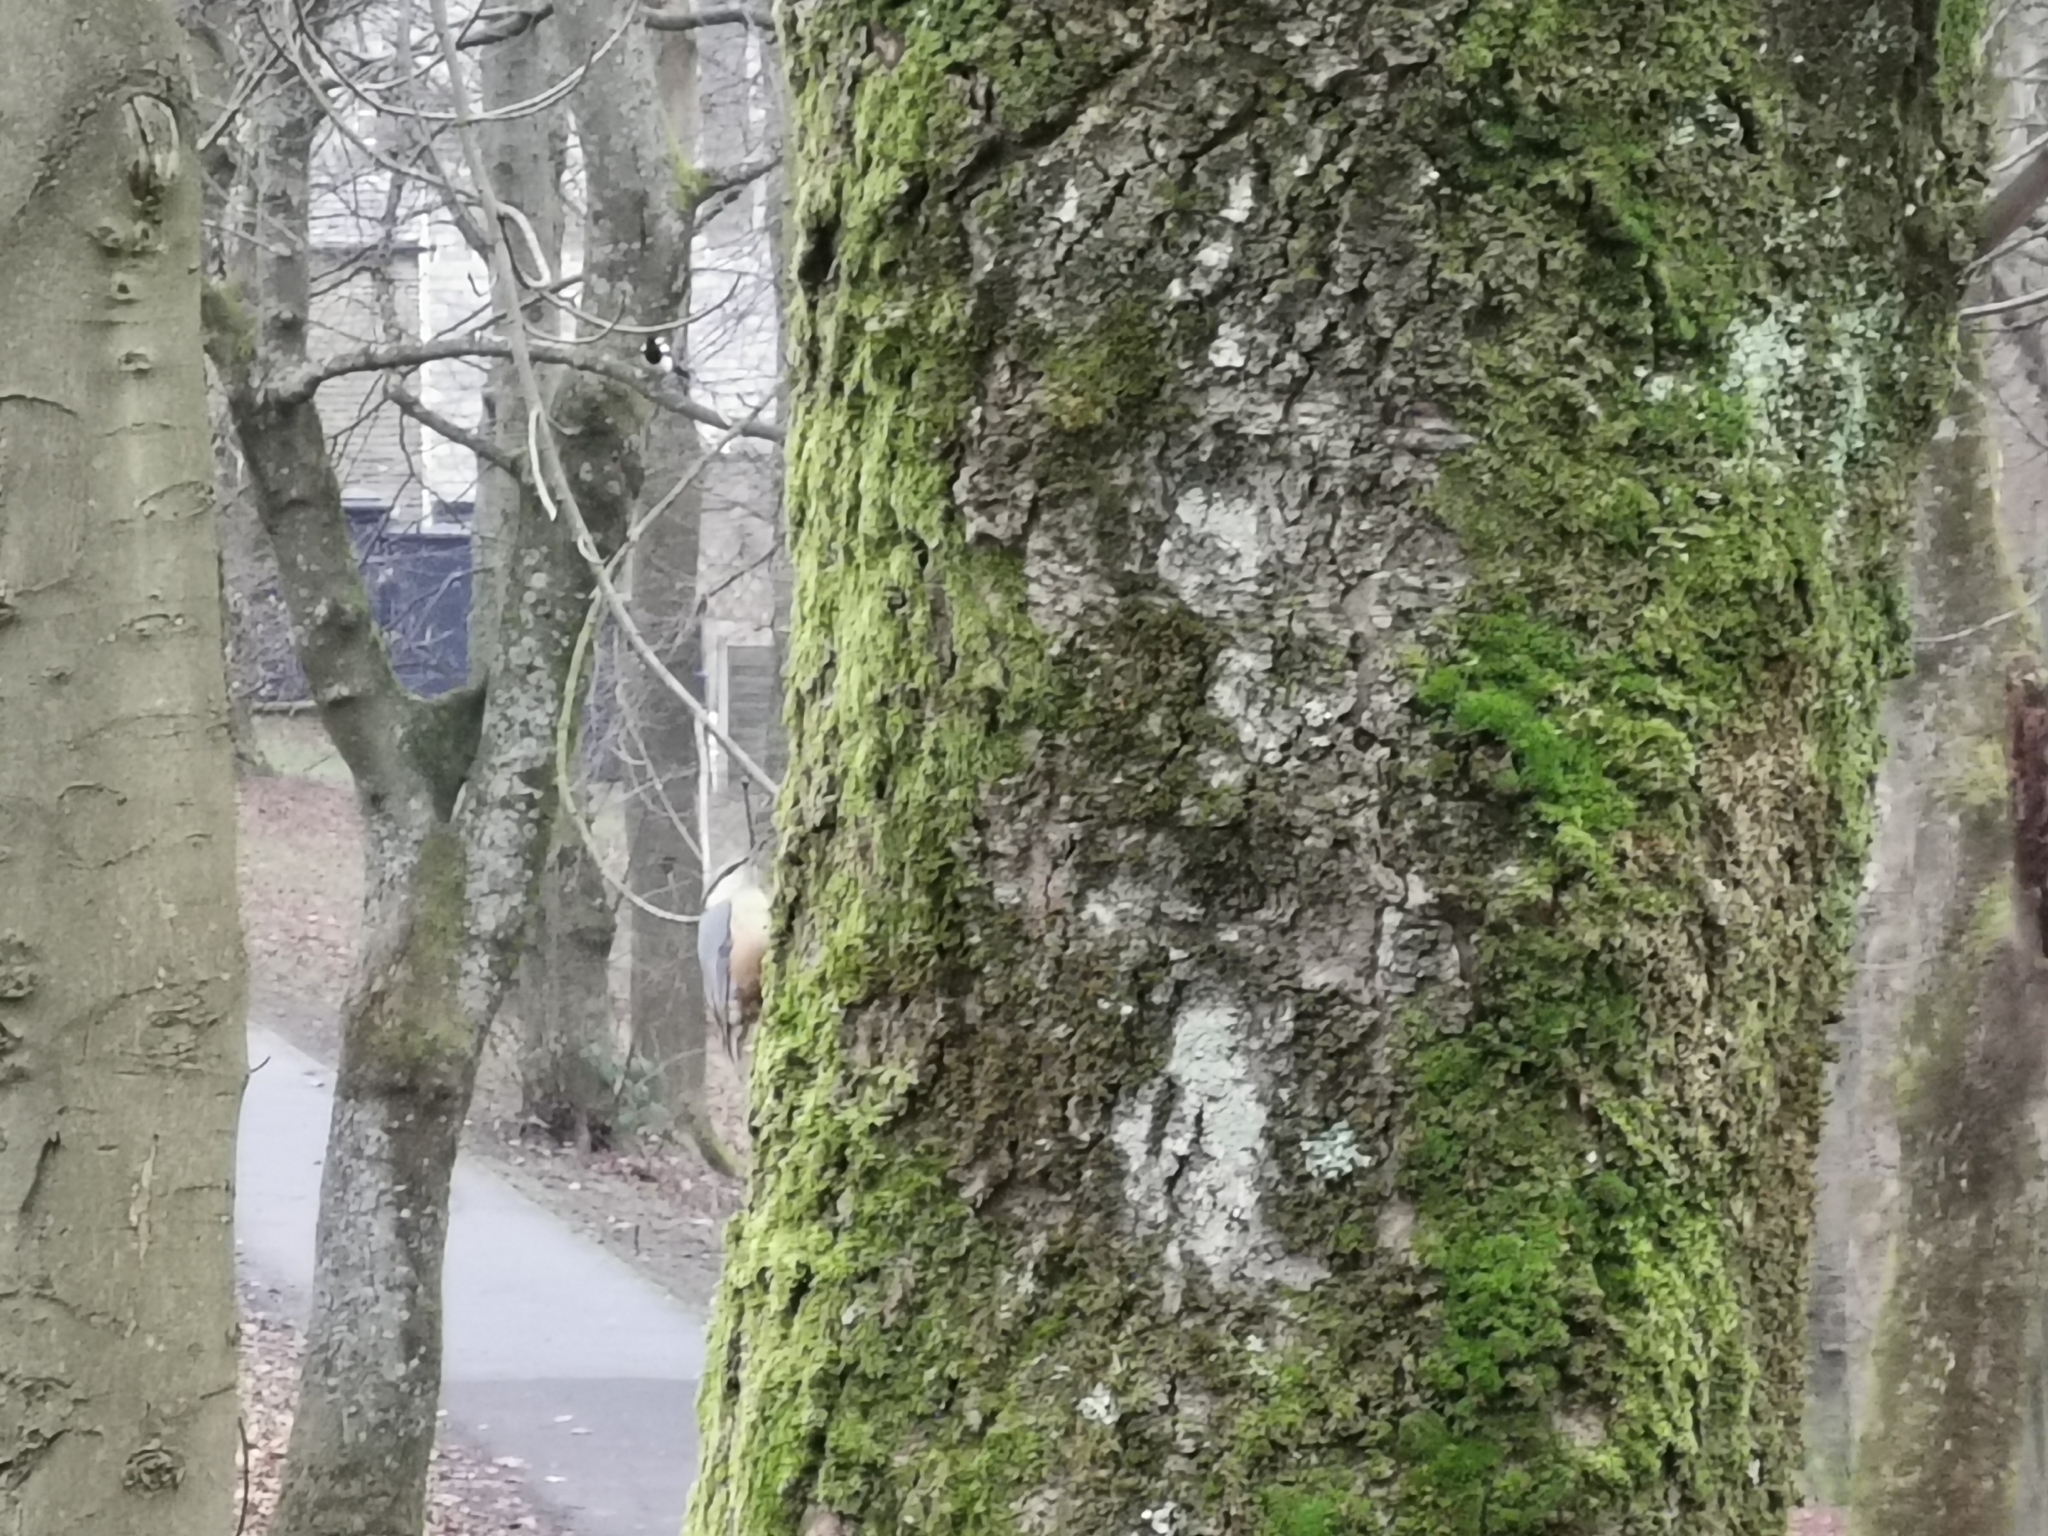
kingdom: Animalia
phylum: Chordata
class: Aves
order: Passeriformes
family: Sittidae
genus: Sitta
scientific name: Sitta europaea
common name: Eurasian nuthatch
